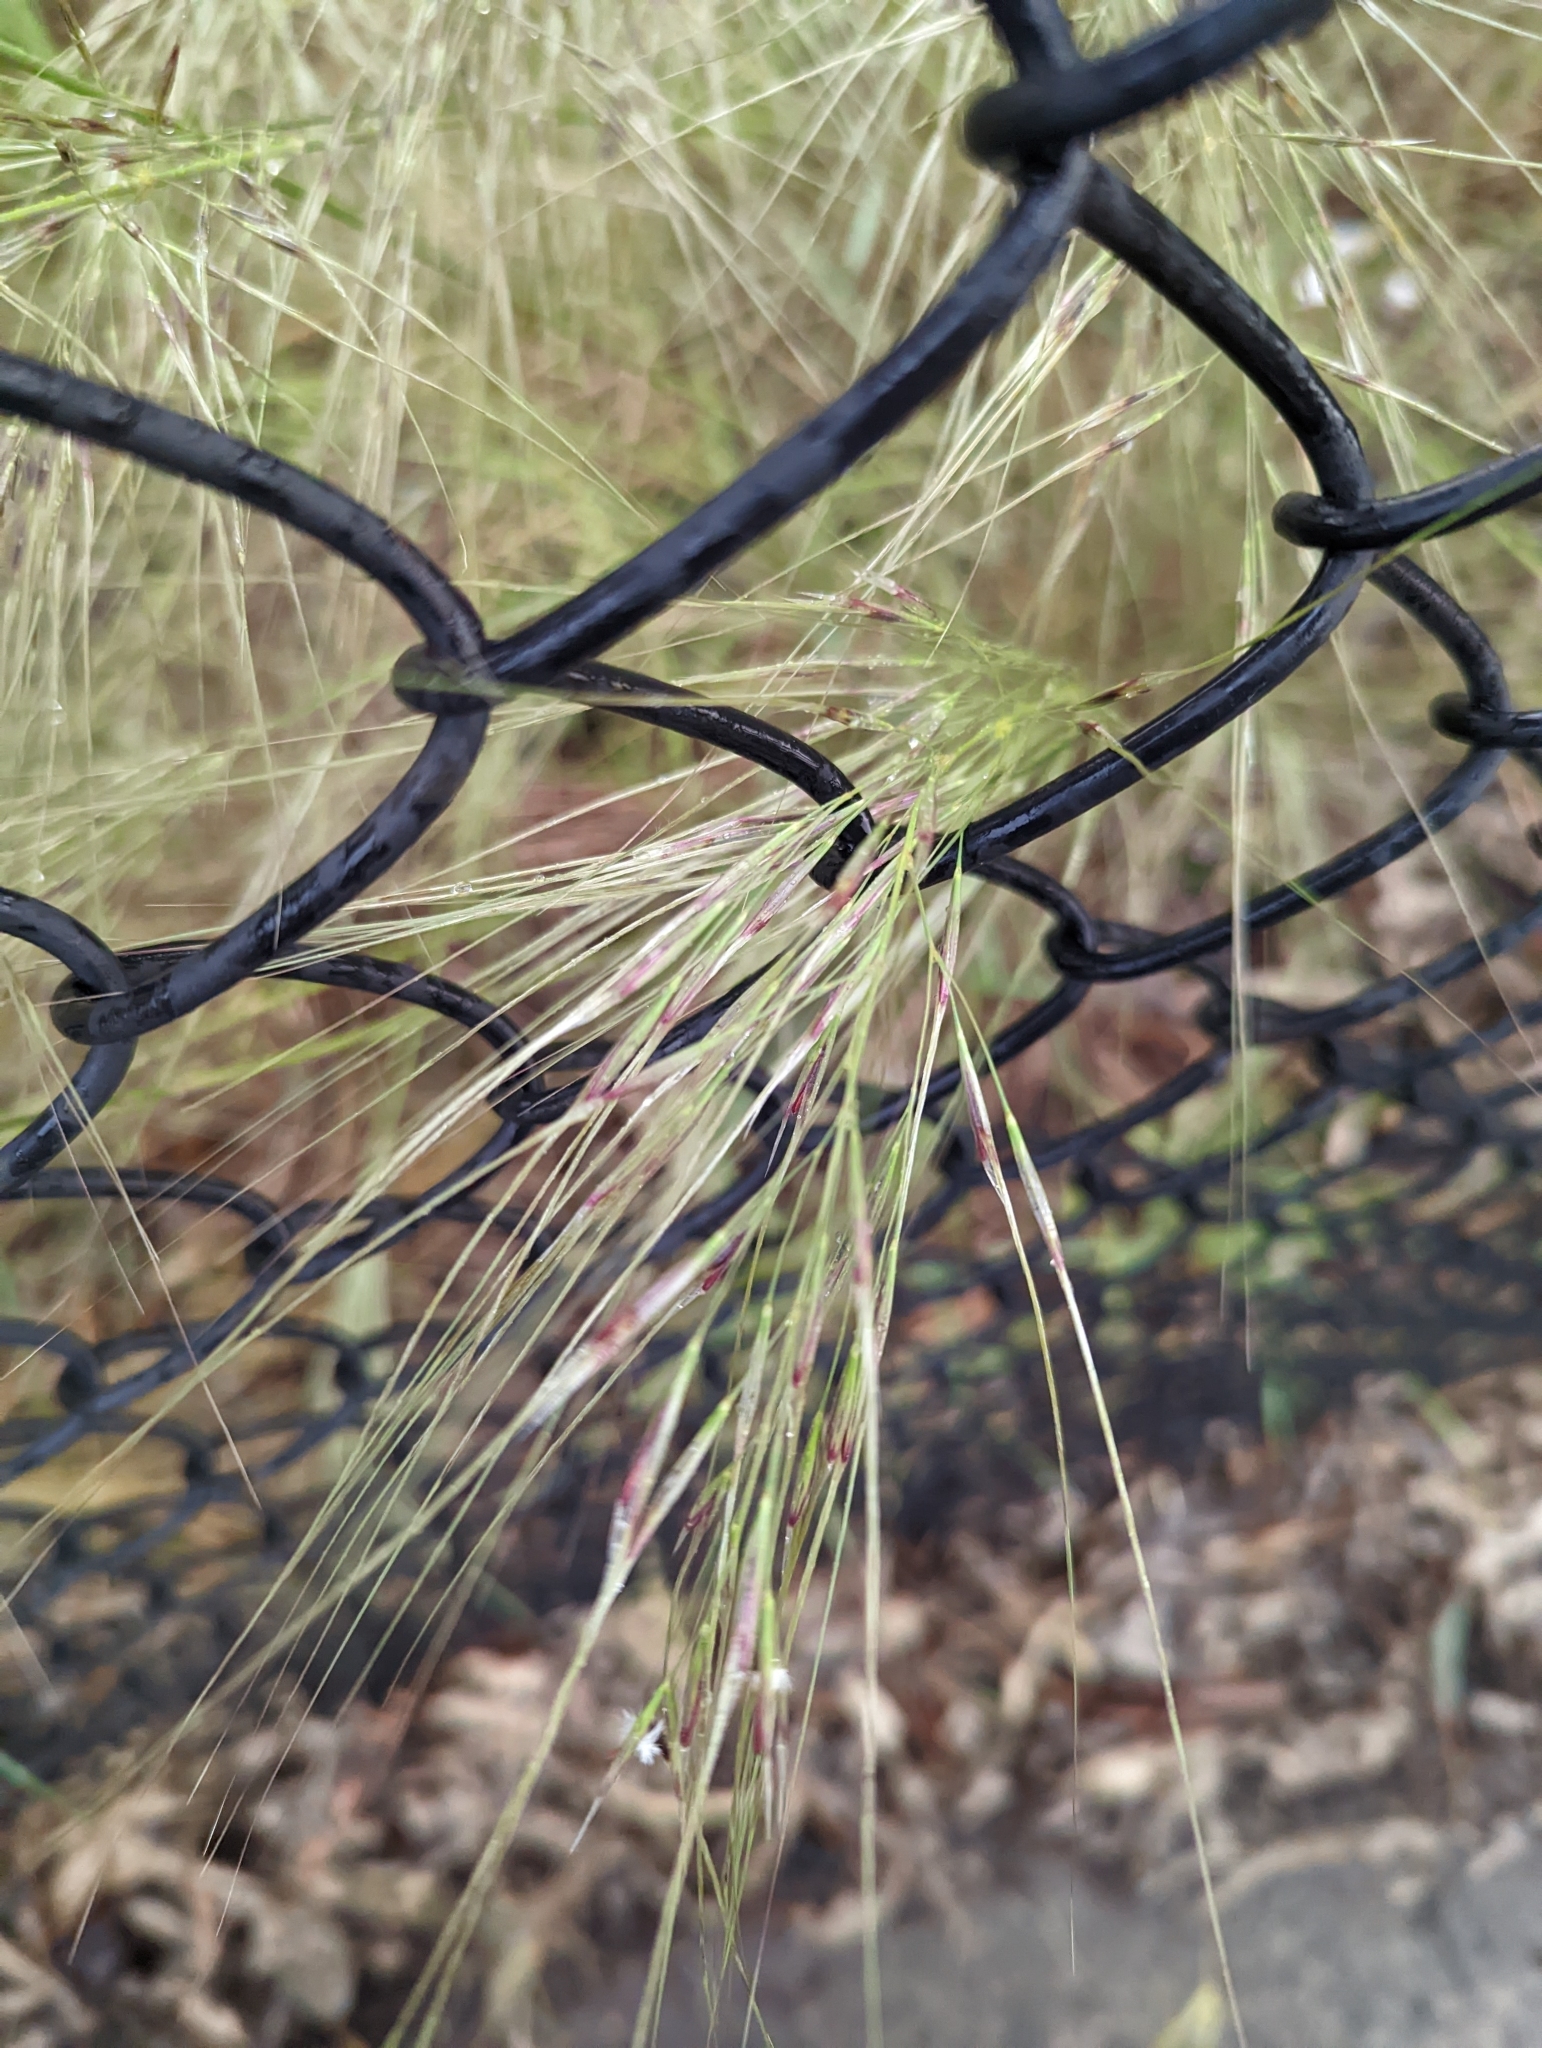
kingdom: Plantae
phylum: Tracheophyta
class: Liliopsida
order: Poales
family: Poaceae
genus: Austrostipa
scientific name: Austrostipa mollis
